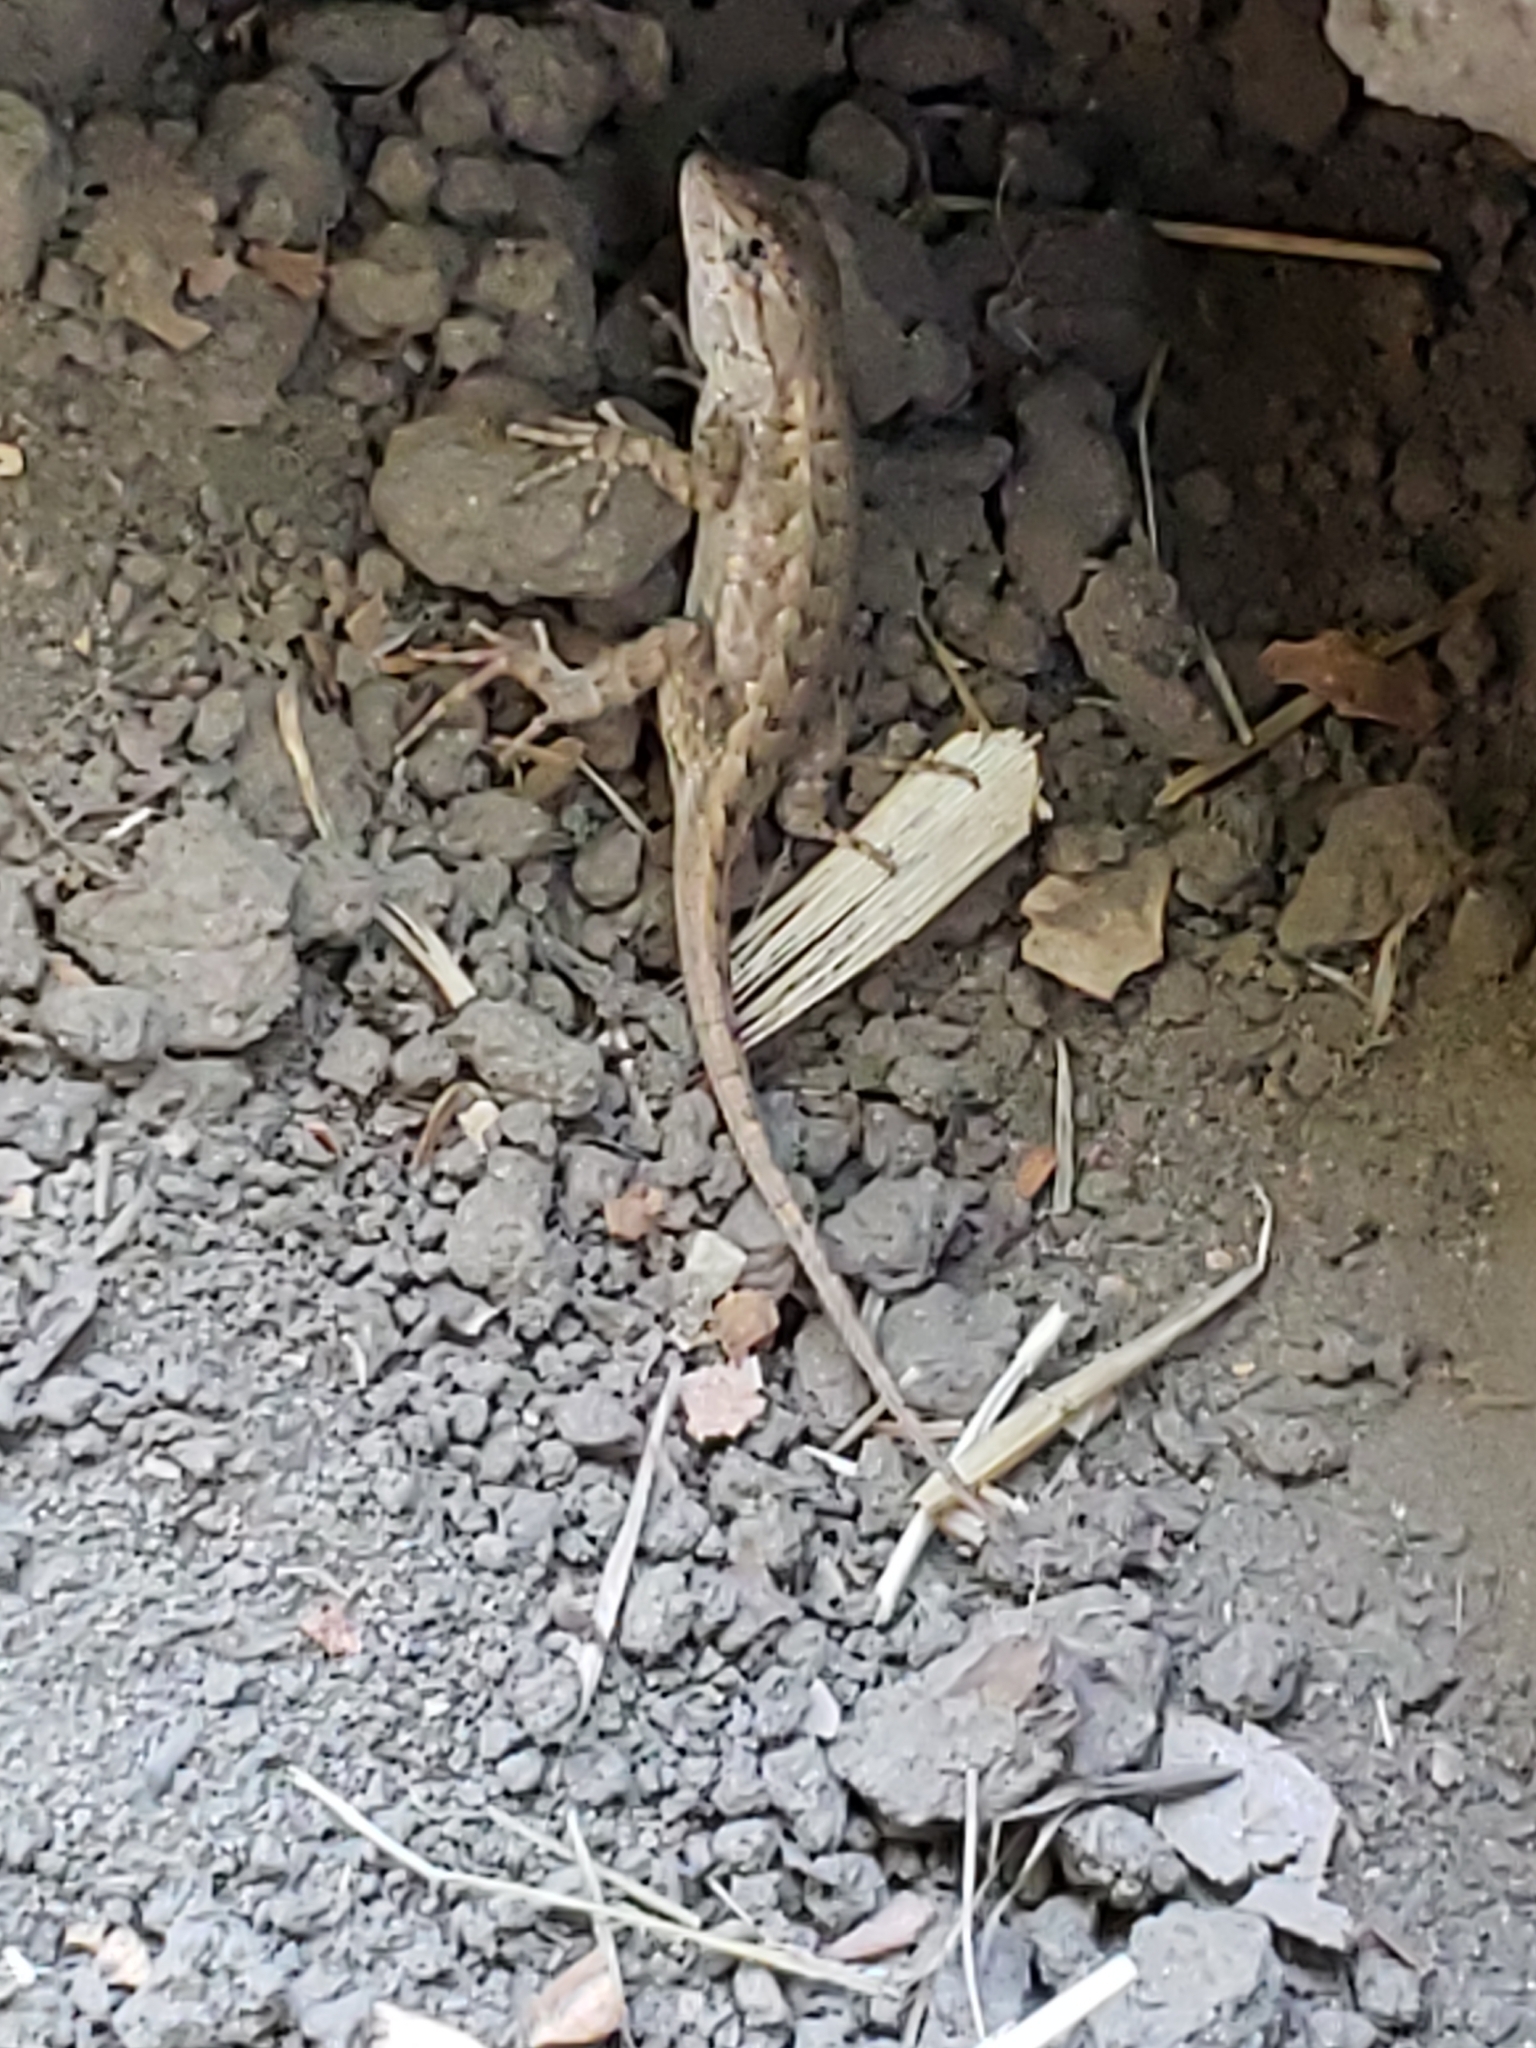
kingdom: Animalia
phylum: Chordata
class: Squamata
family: Phrynosomatidae
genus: Sceloporus
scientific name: Sceloporus occidentalis
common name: Western fence lizard
